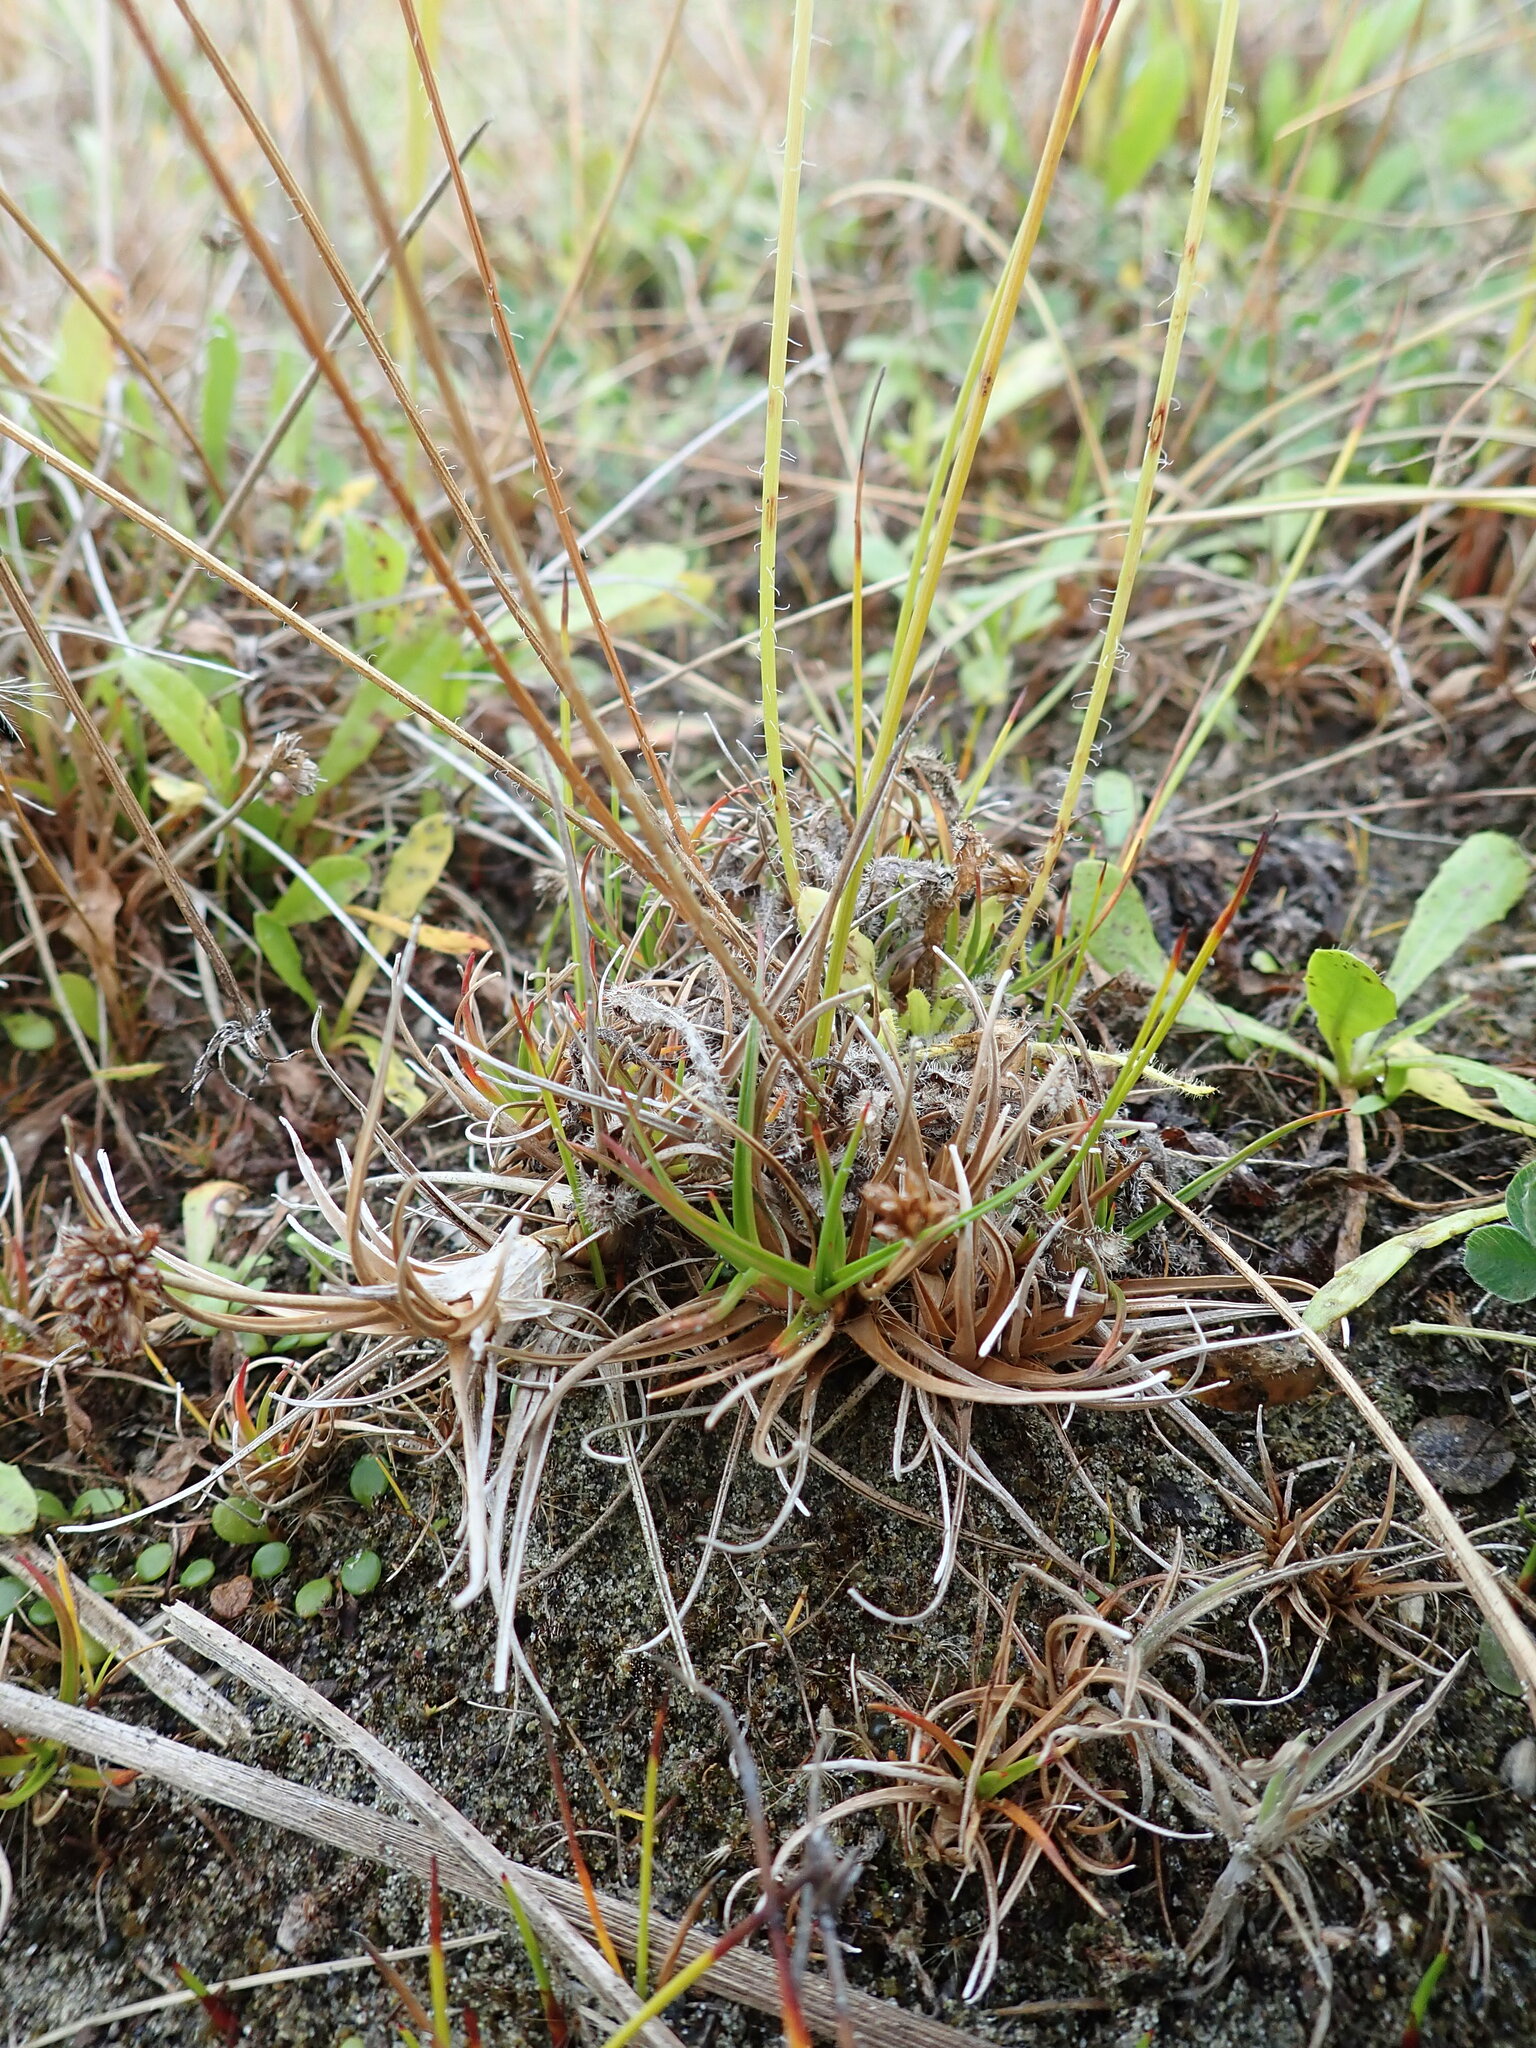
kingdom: Plantae
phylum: Tracheophyta
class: Liliopsida
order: Poales
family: Juncaceae
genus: Juncus
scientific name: Juncus caespiticius
